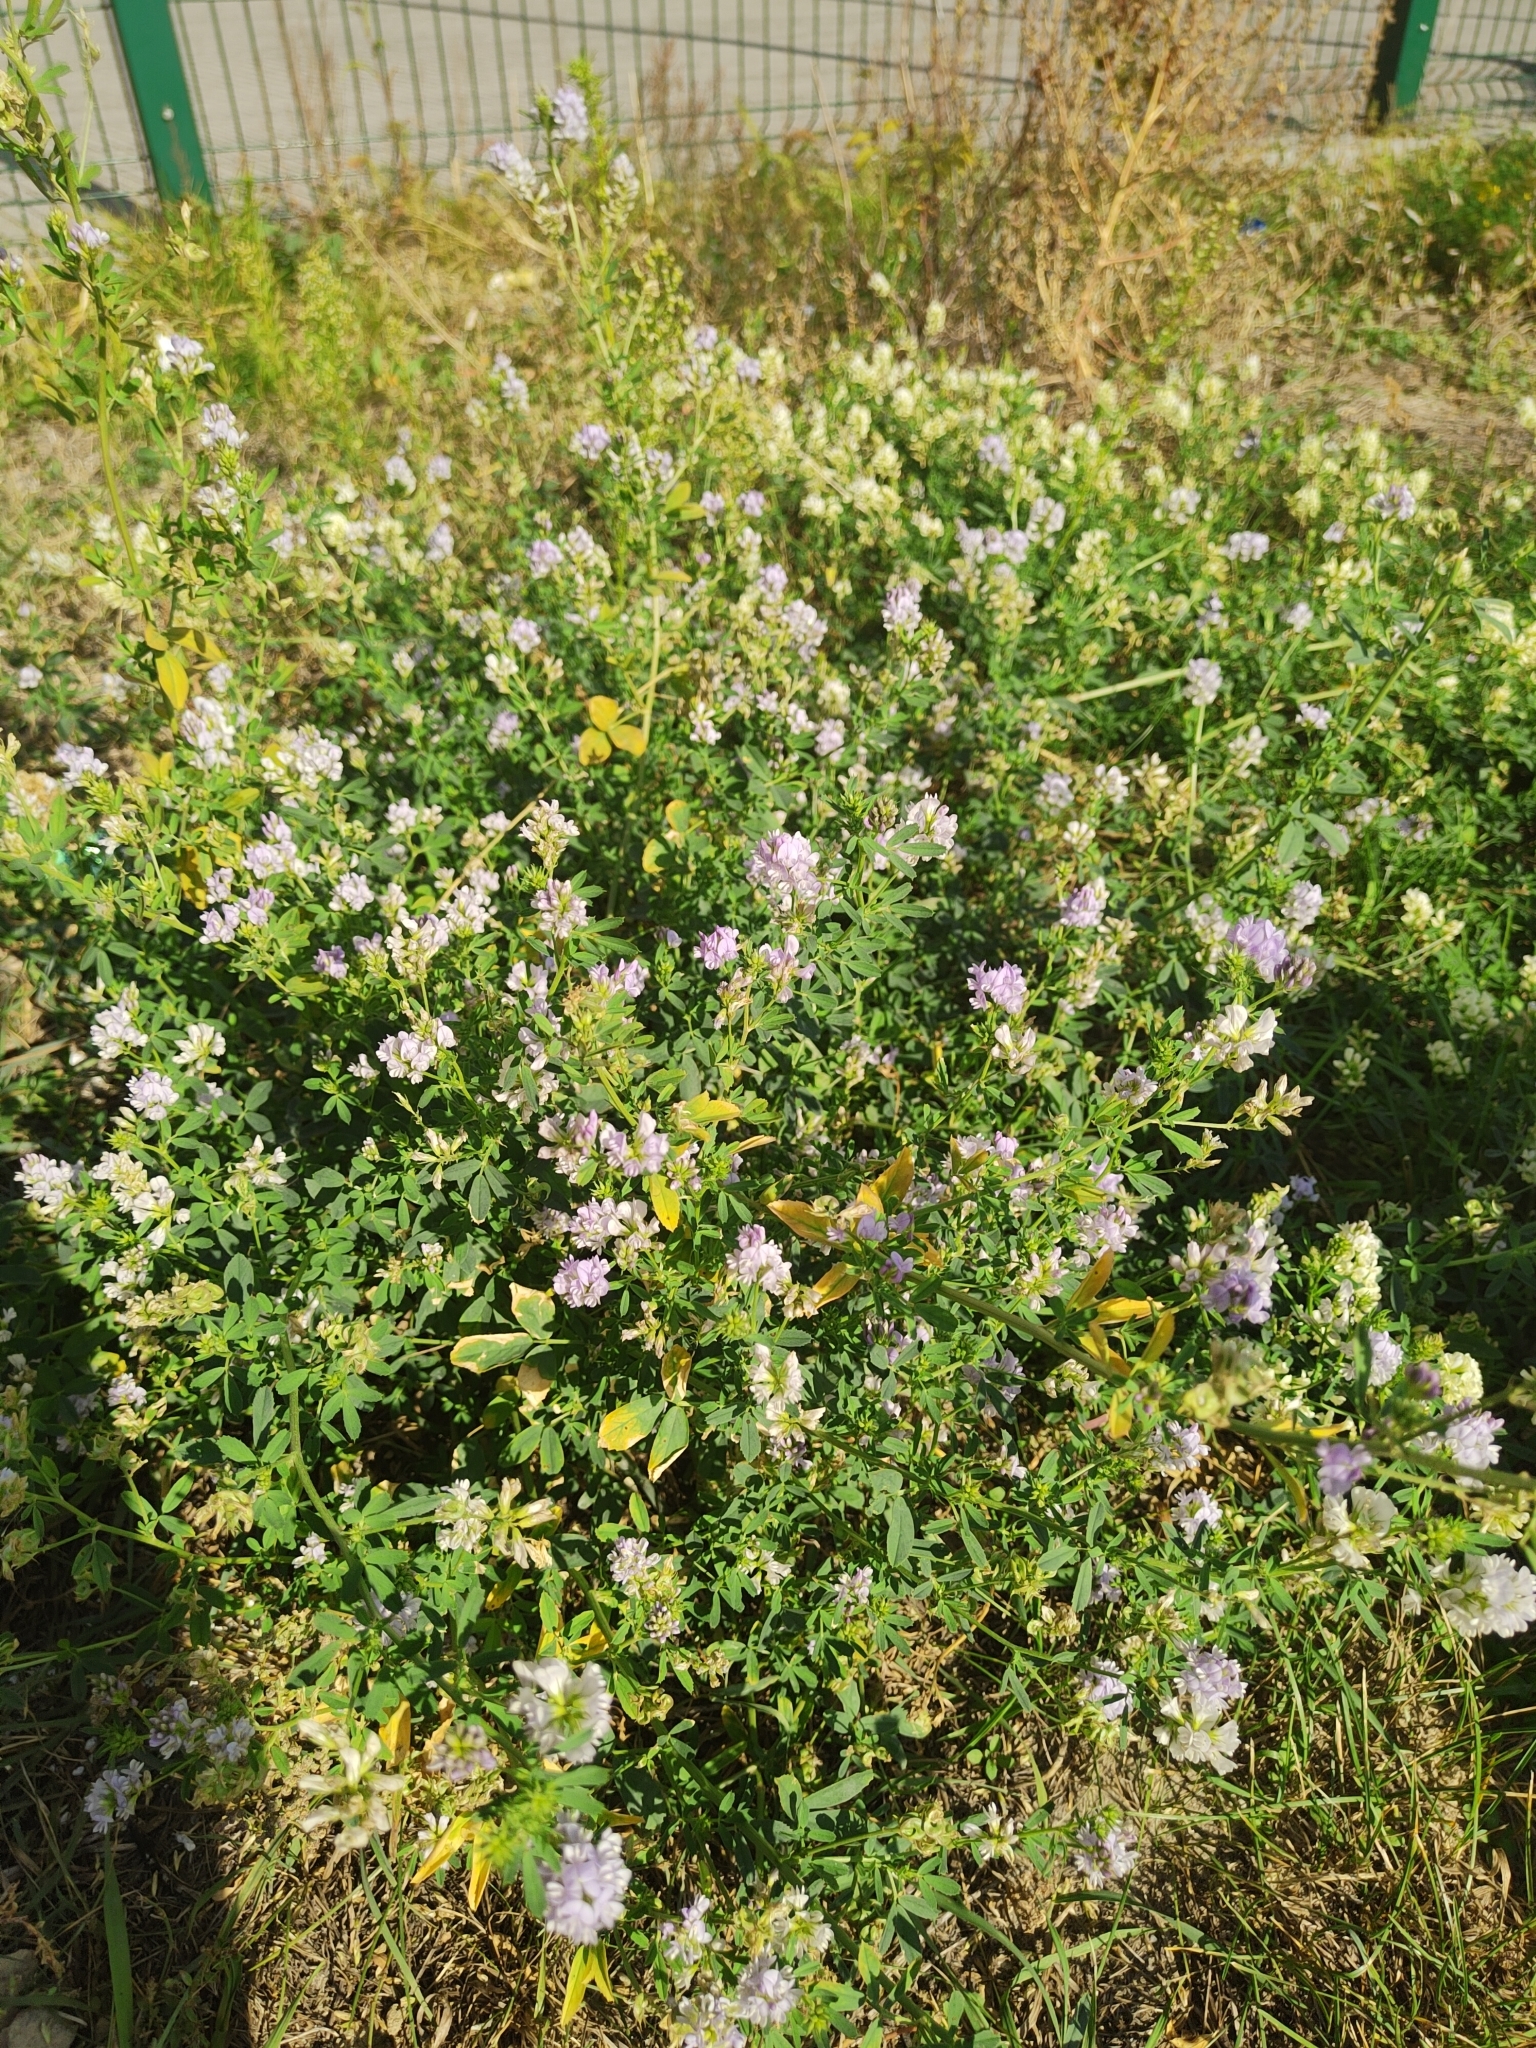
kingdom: Plantae
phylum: Tracheophyta
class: Magnoliopsida
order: Fabales
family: Fabaceae
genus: Medicago
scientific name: Medicago varia
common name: Sand lucerne
